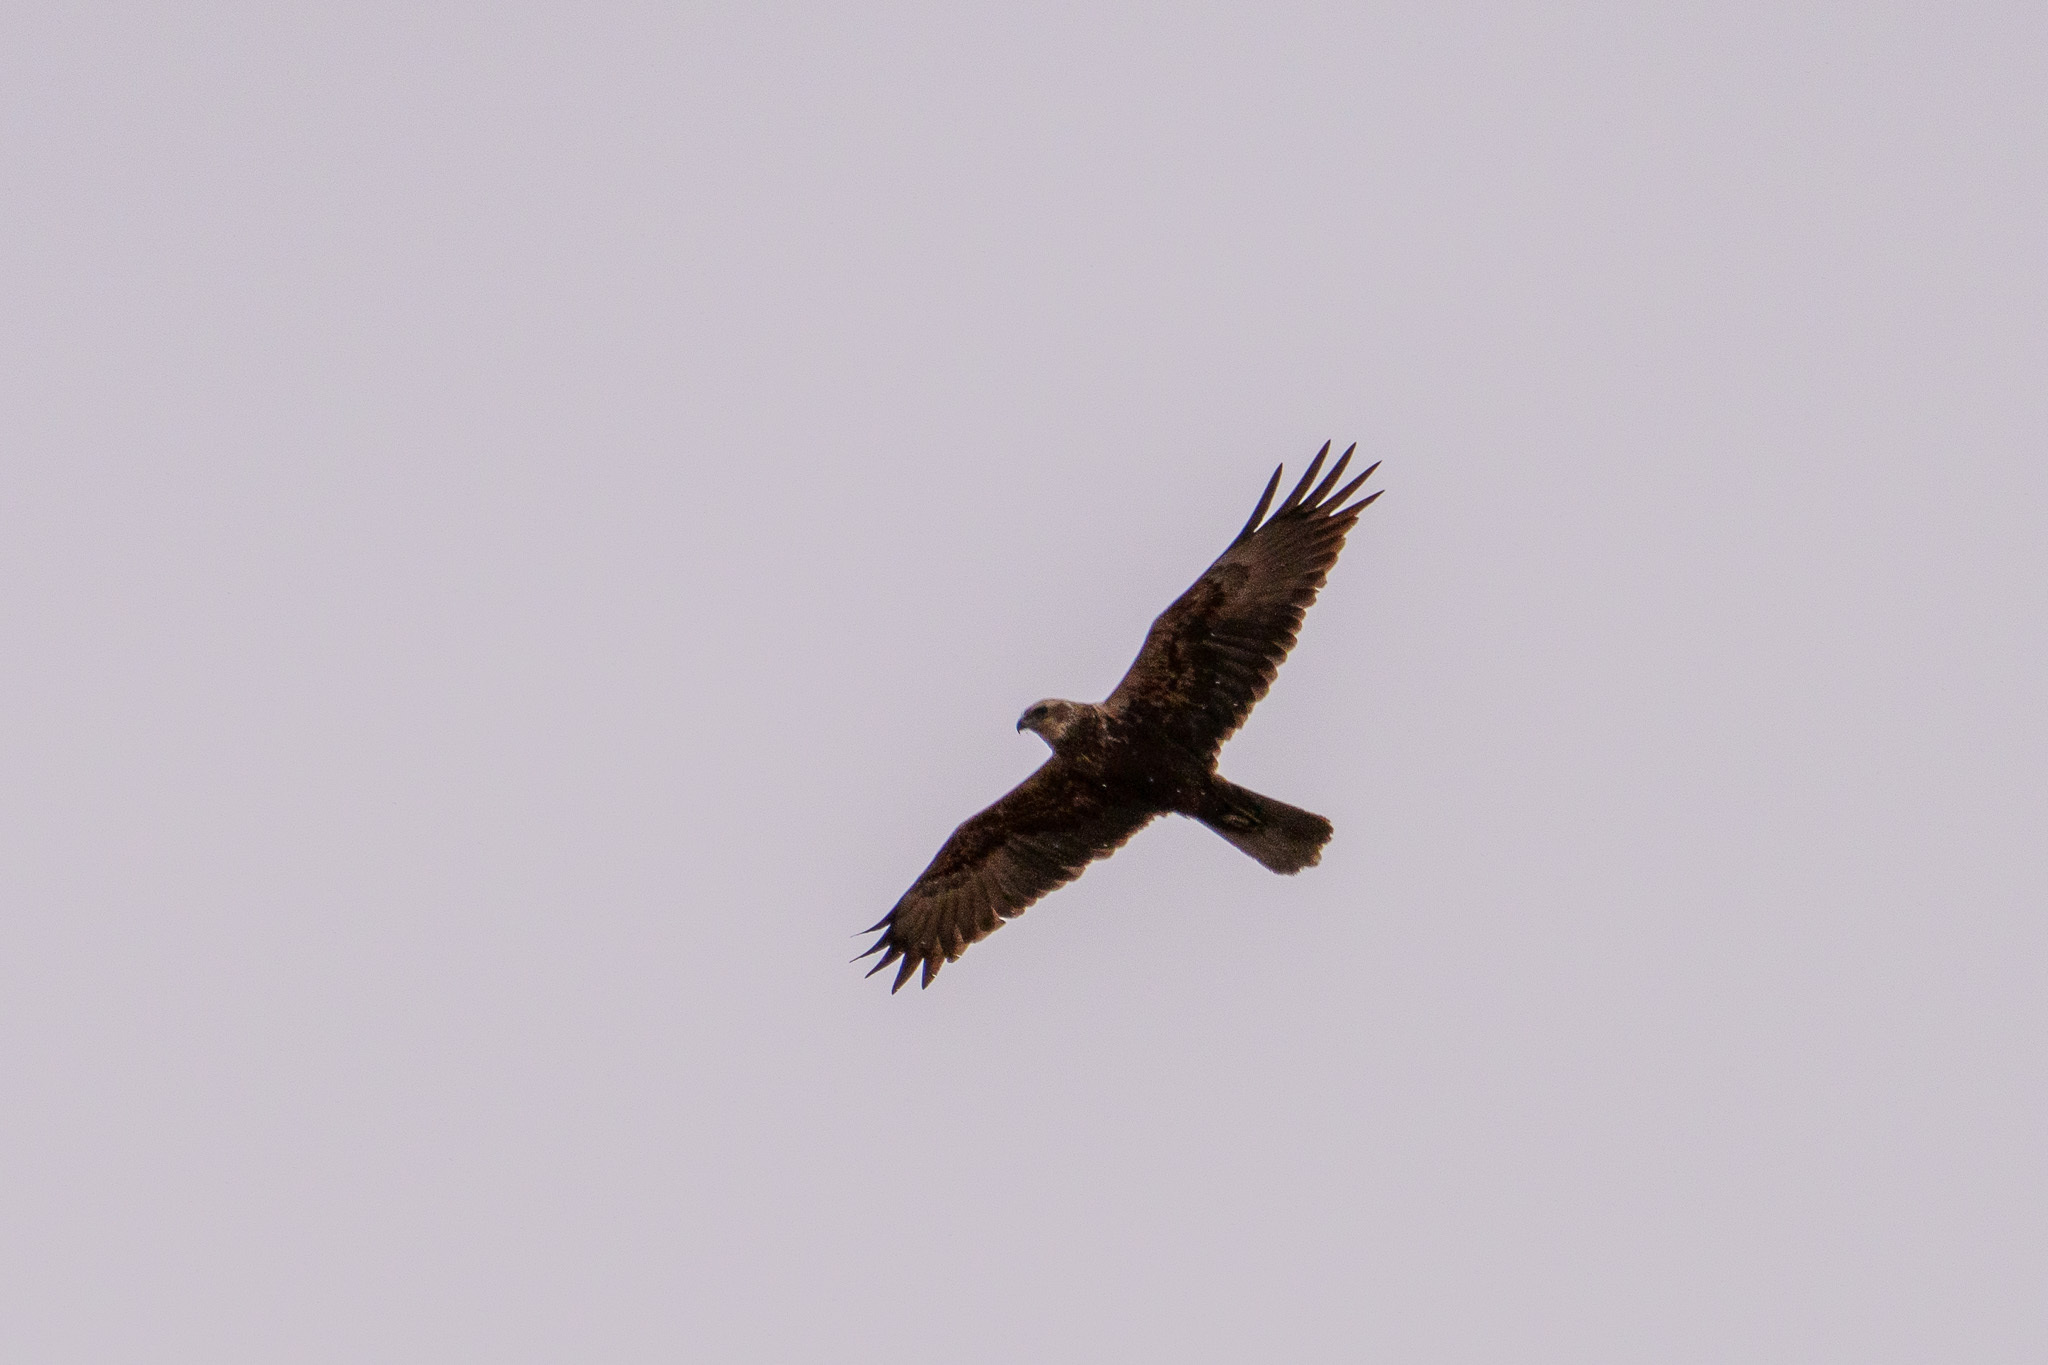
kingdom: Animalia
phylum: Chordata
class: Aves
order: Accipitriformes
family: Accipitridae
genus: Circus
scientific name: Circus aeruginosus
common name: Western marsh harrier
